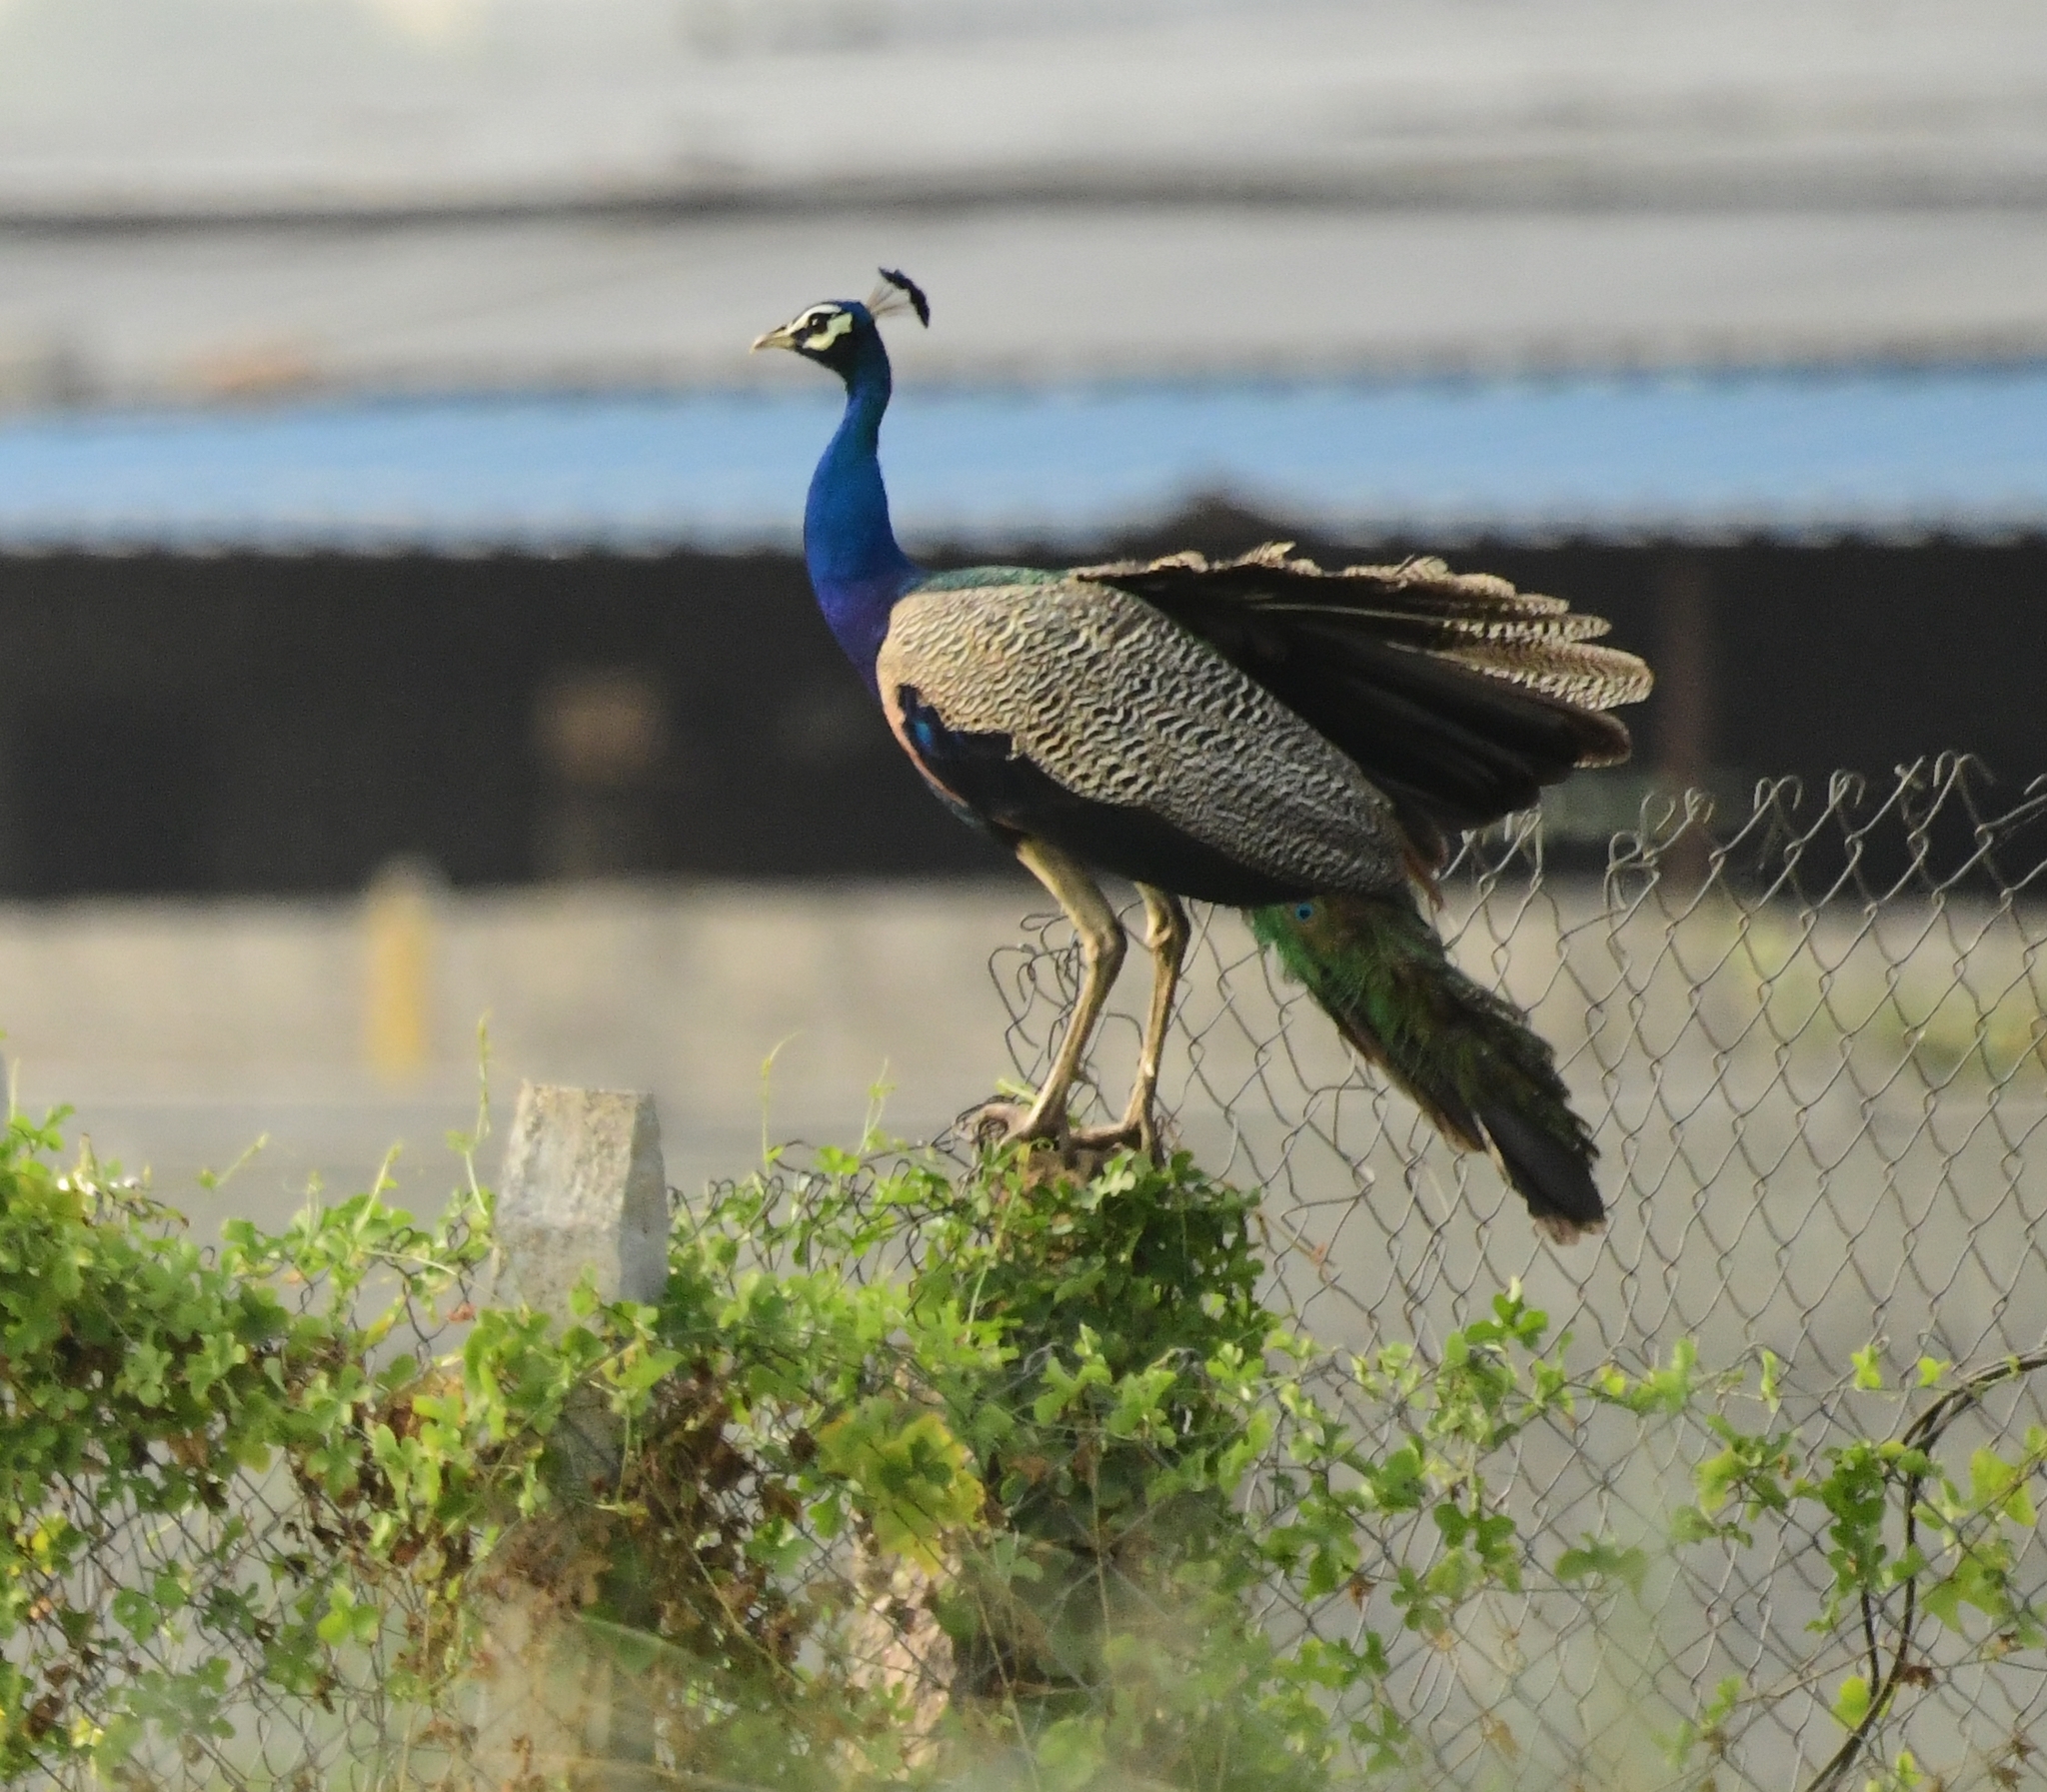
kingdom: Animalia
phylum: Chordata
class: Aves
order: Galliformes
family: Phasianidae
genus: Pavo
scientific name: Pavo cristatus
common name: Indian peafowl
